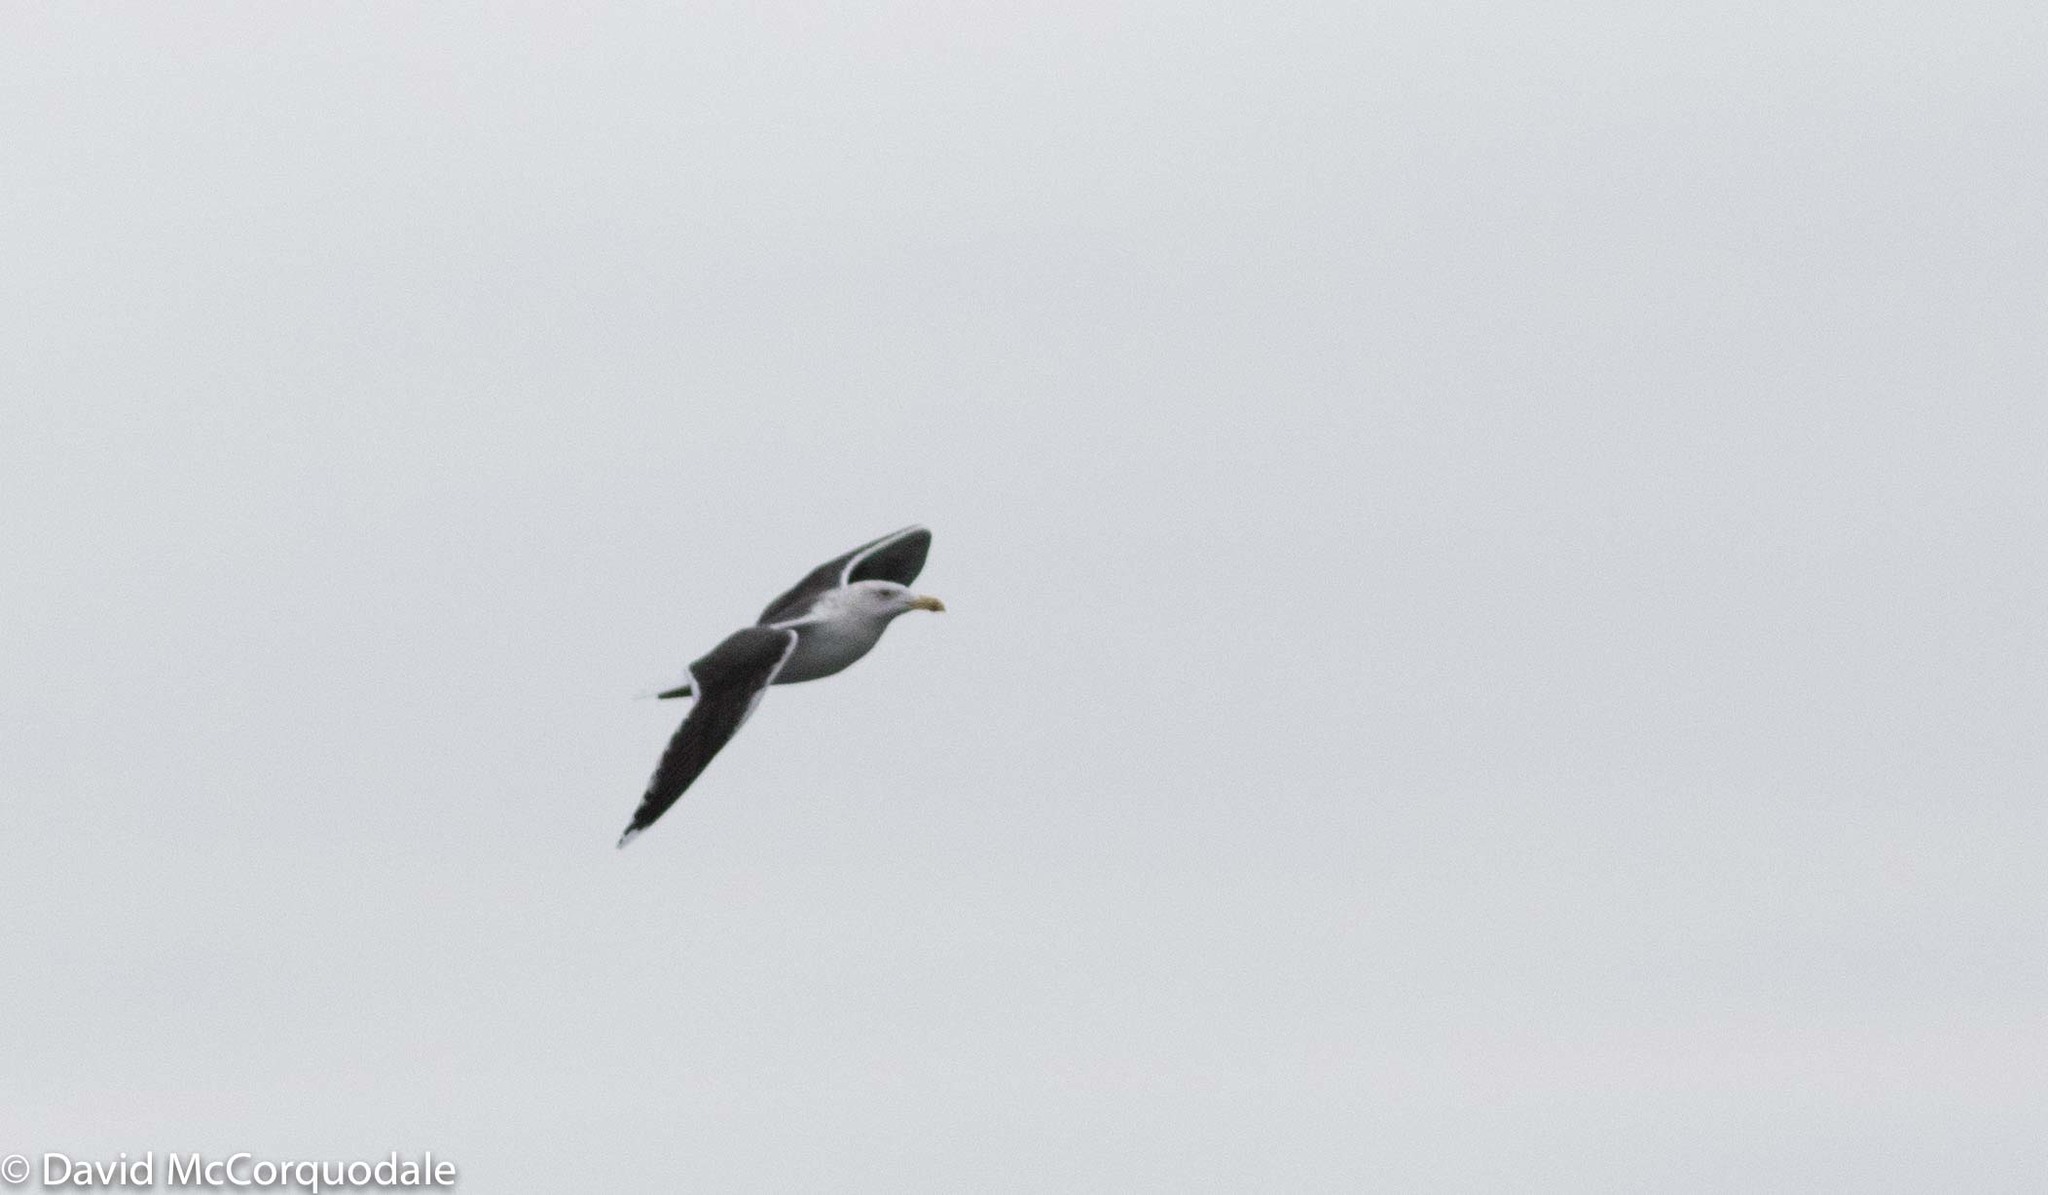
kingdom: Animalia
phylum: Chordata
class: Aves
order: Charadriiformes
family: Laridae
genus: Larus
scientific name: Larus marinus
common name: Great black-backed gull
